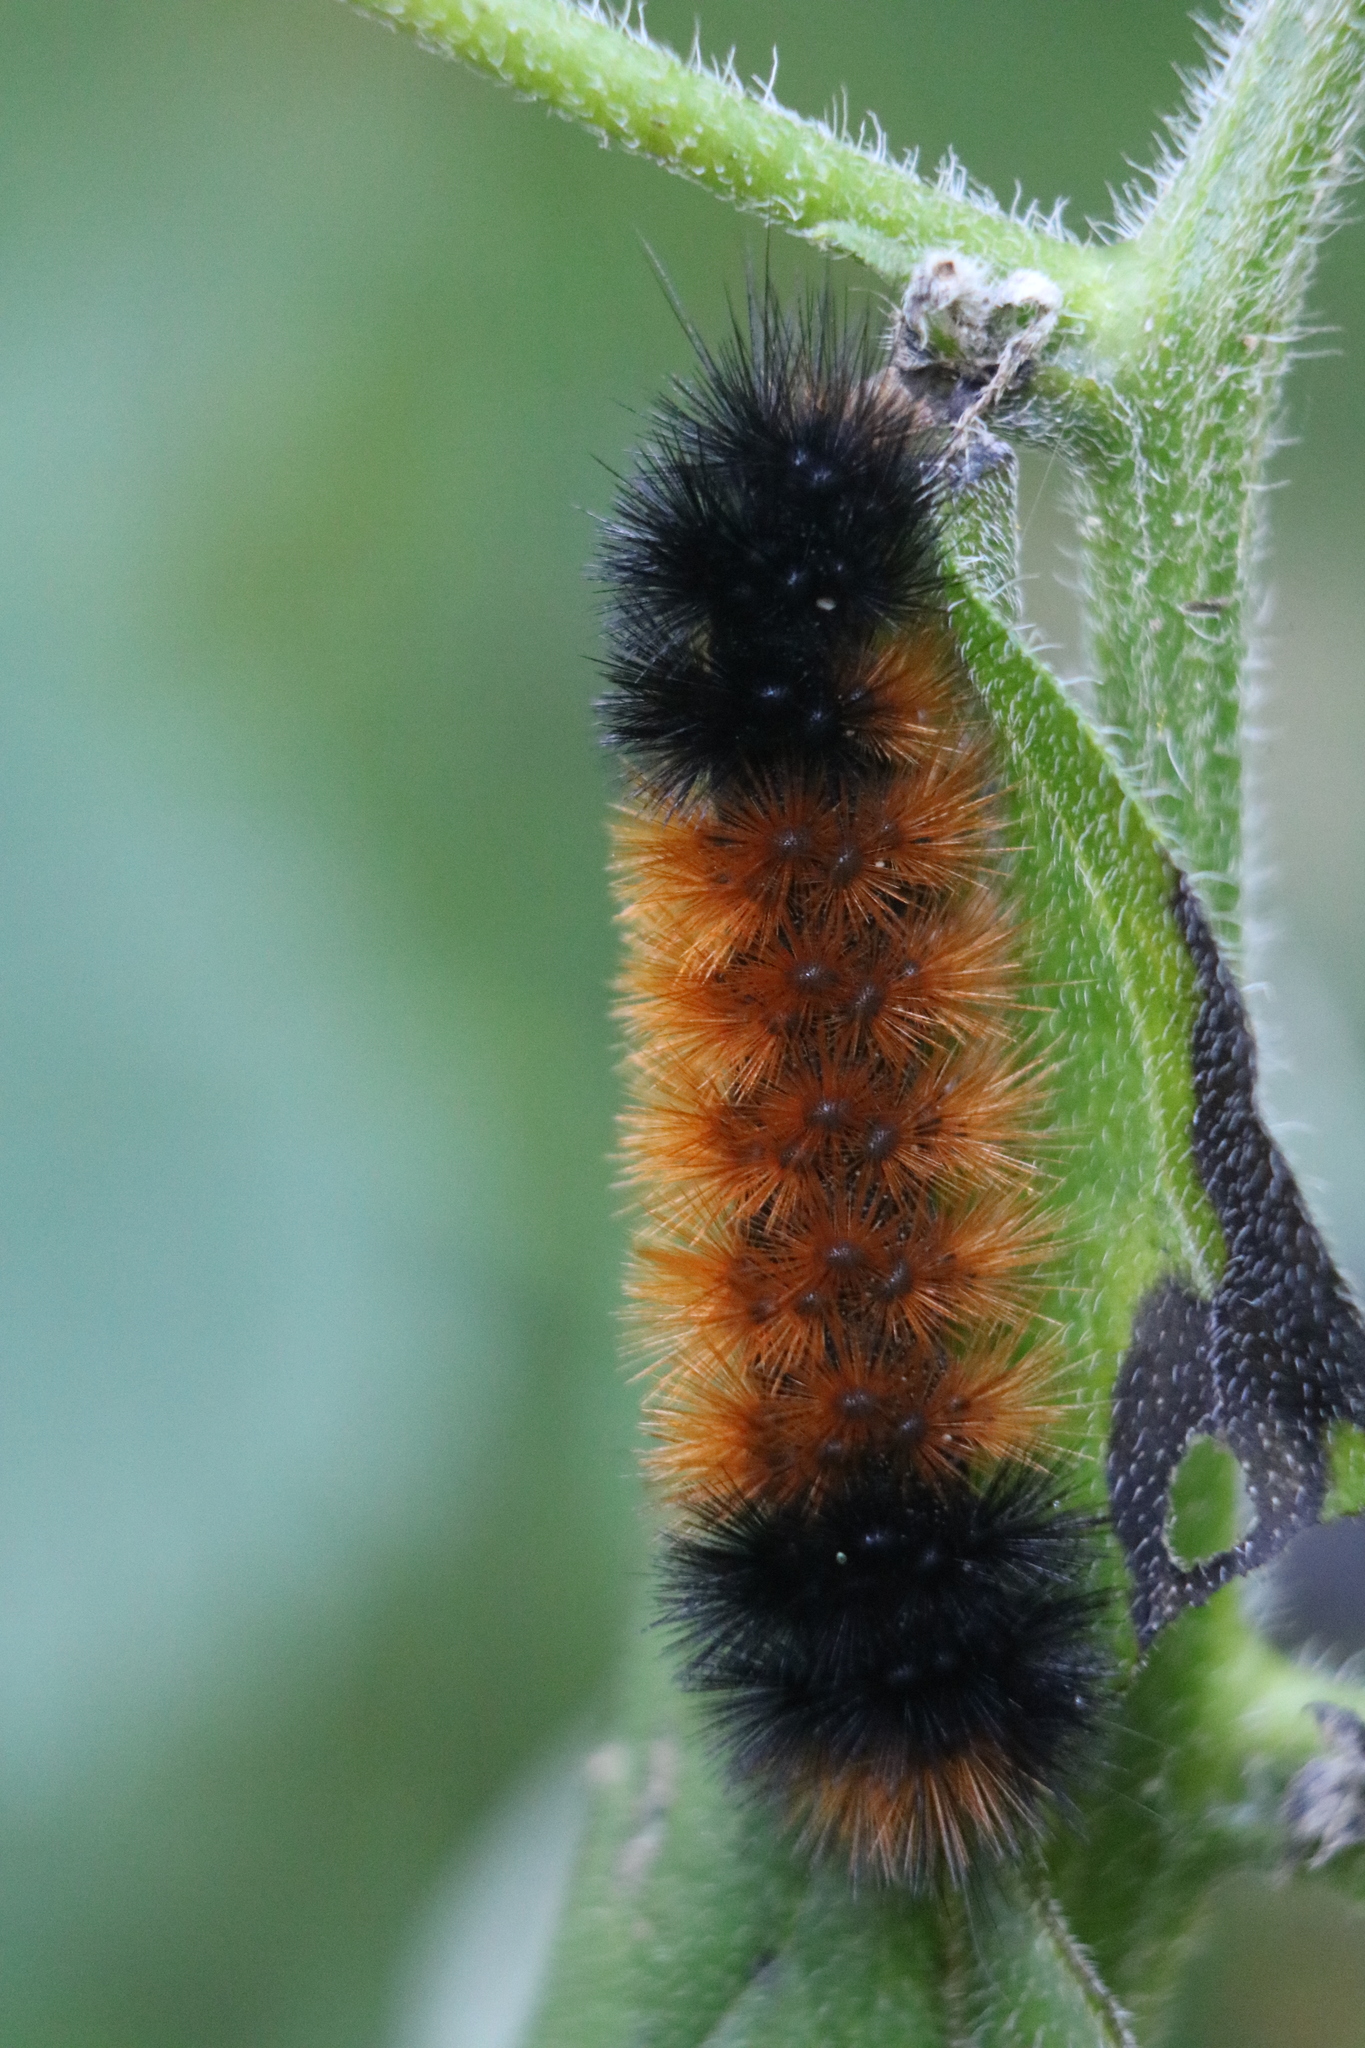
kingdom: Animalia
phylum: Arthropoda
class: Insecta
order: Lepidoptera
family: Erebidae
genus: Pyrrharctia
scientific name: Pyrrharctia isabella
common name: Isabella tiger moth
